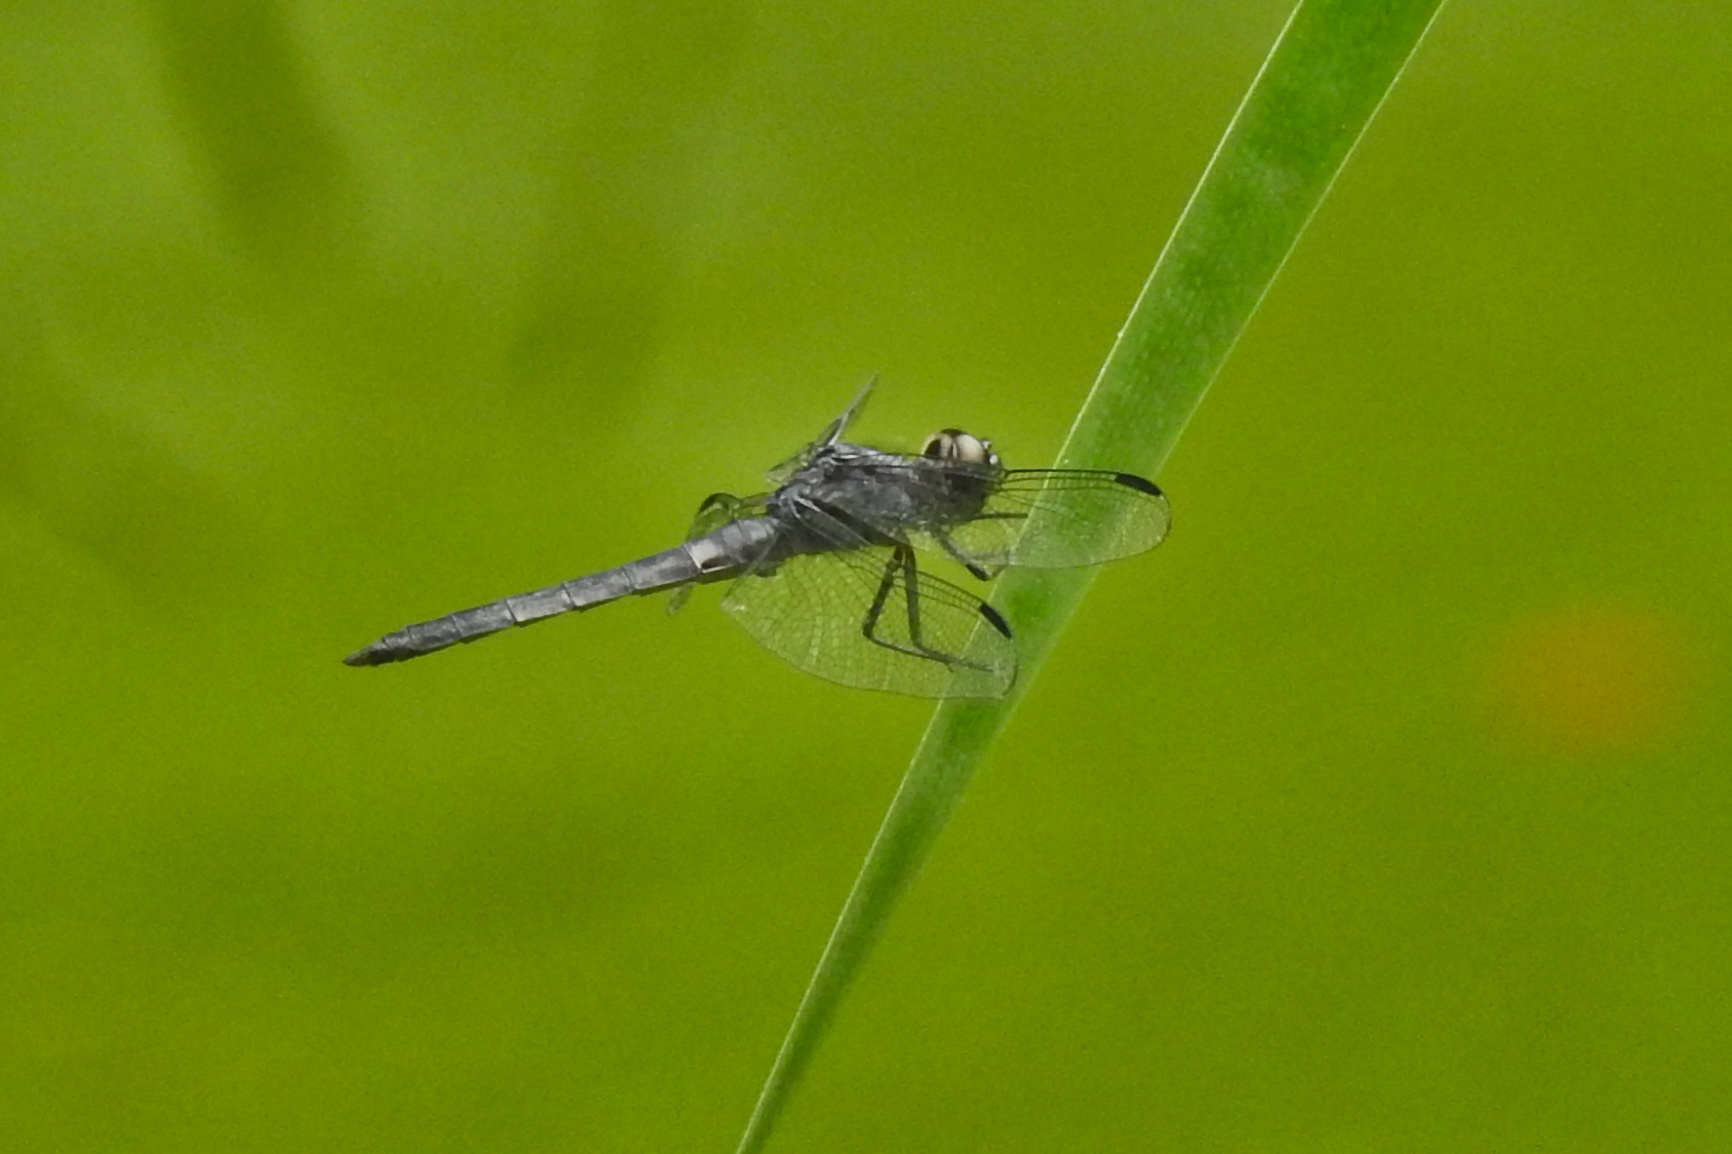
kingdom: Animalia
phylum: Arthropoda
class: Insecta
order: Odonata
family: Libellulidae
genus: Libellula
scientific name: Libellula incesta
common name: Slaty skimmer
